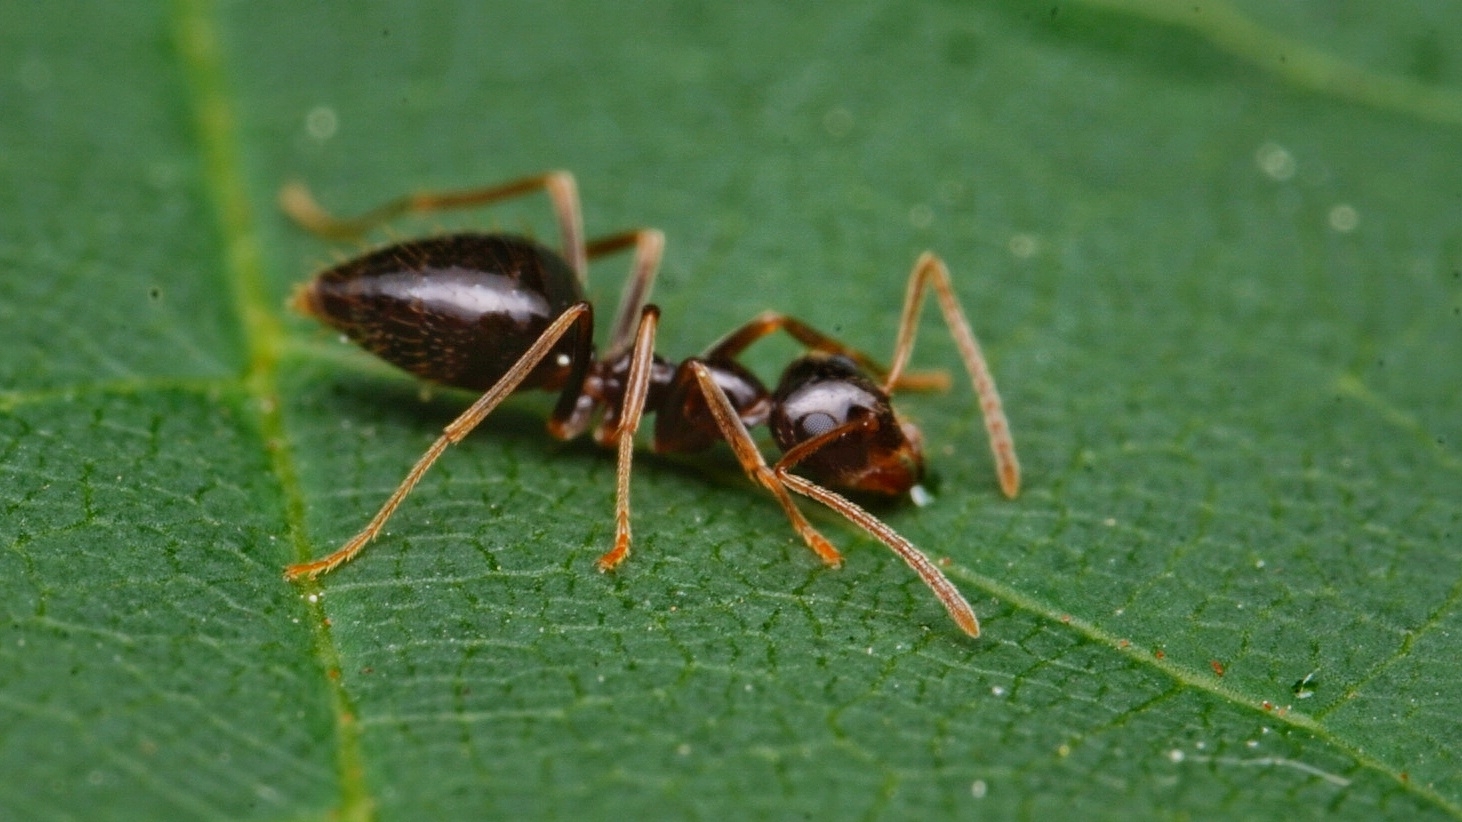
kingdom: Animalia
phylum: Arthropoda
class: Insecta
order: Hymenoptera
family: Formicidae
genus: Prenolepis
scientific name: Prenolepis imparis
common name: Small honey ant
